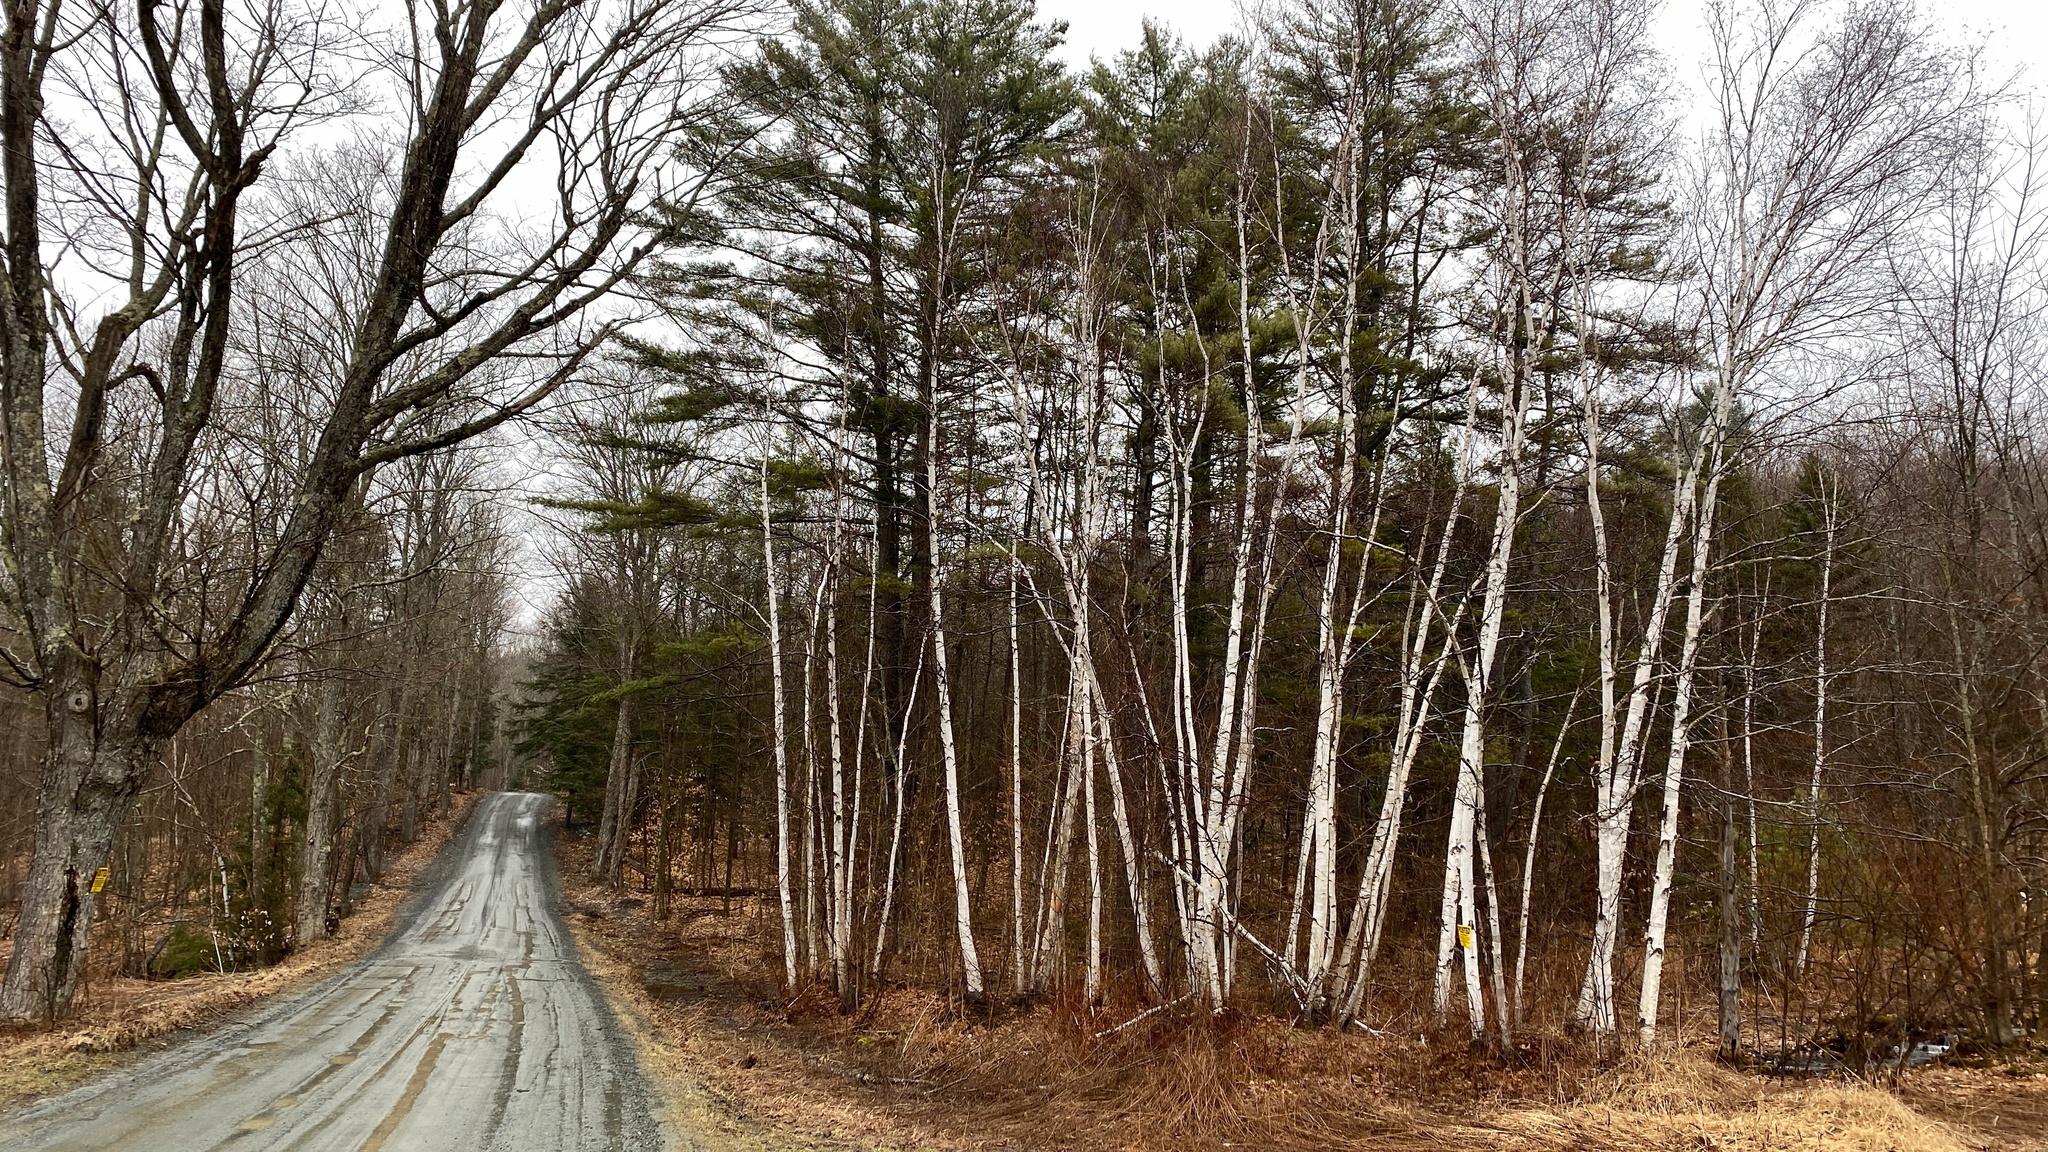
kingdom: Plantae
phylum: Tracheophyta
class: Magnoliopsida
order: Fagales
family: Betulaceae
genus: Betula
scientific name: Betula papyrifera
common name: Paper birch
